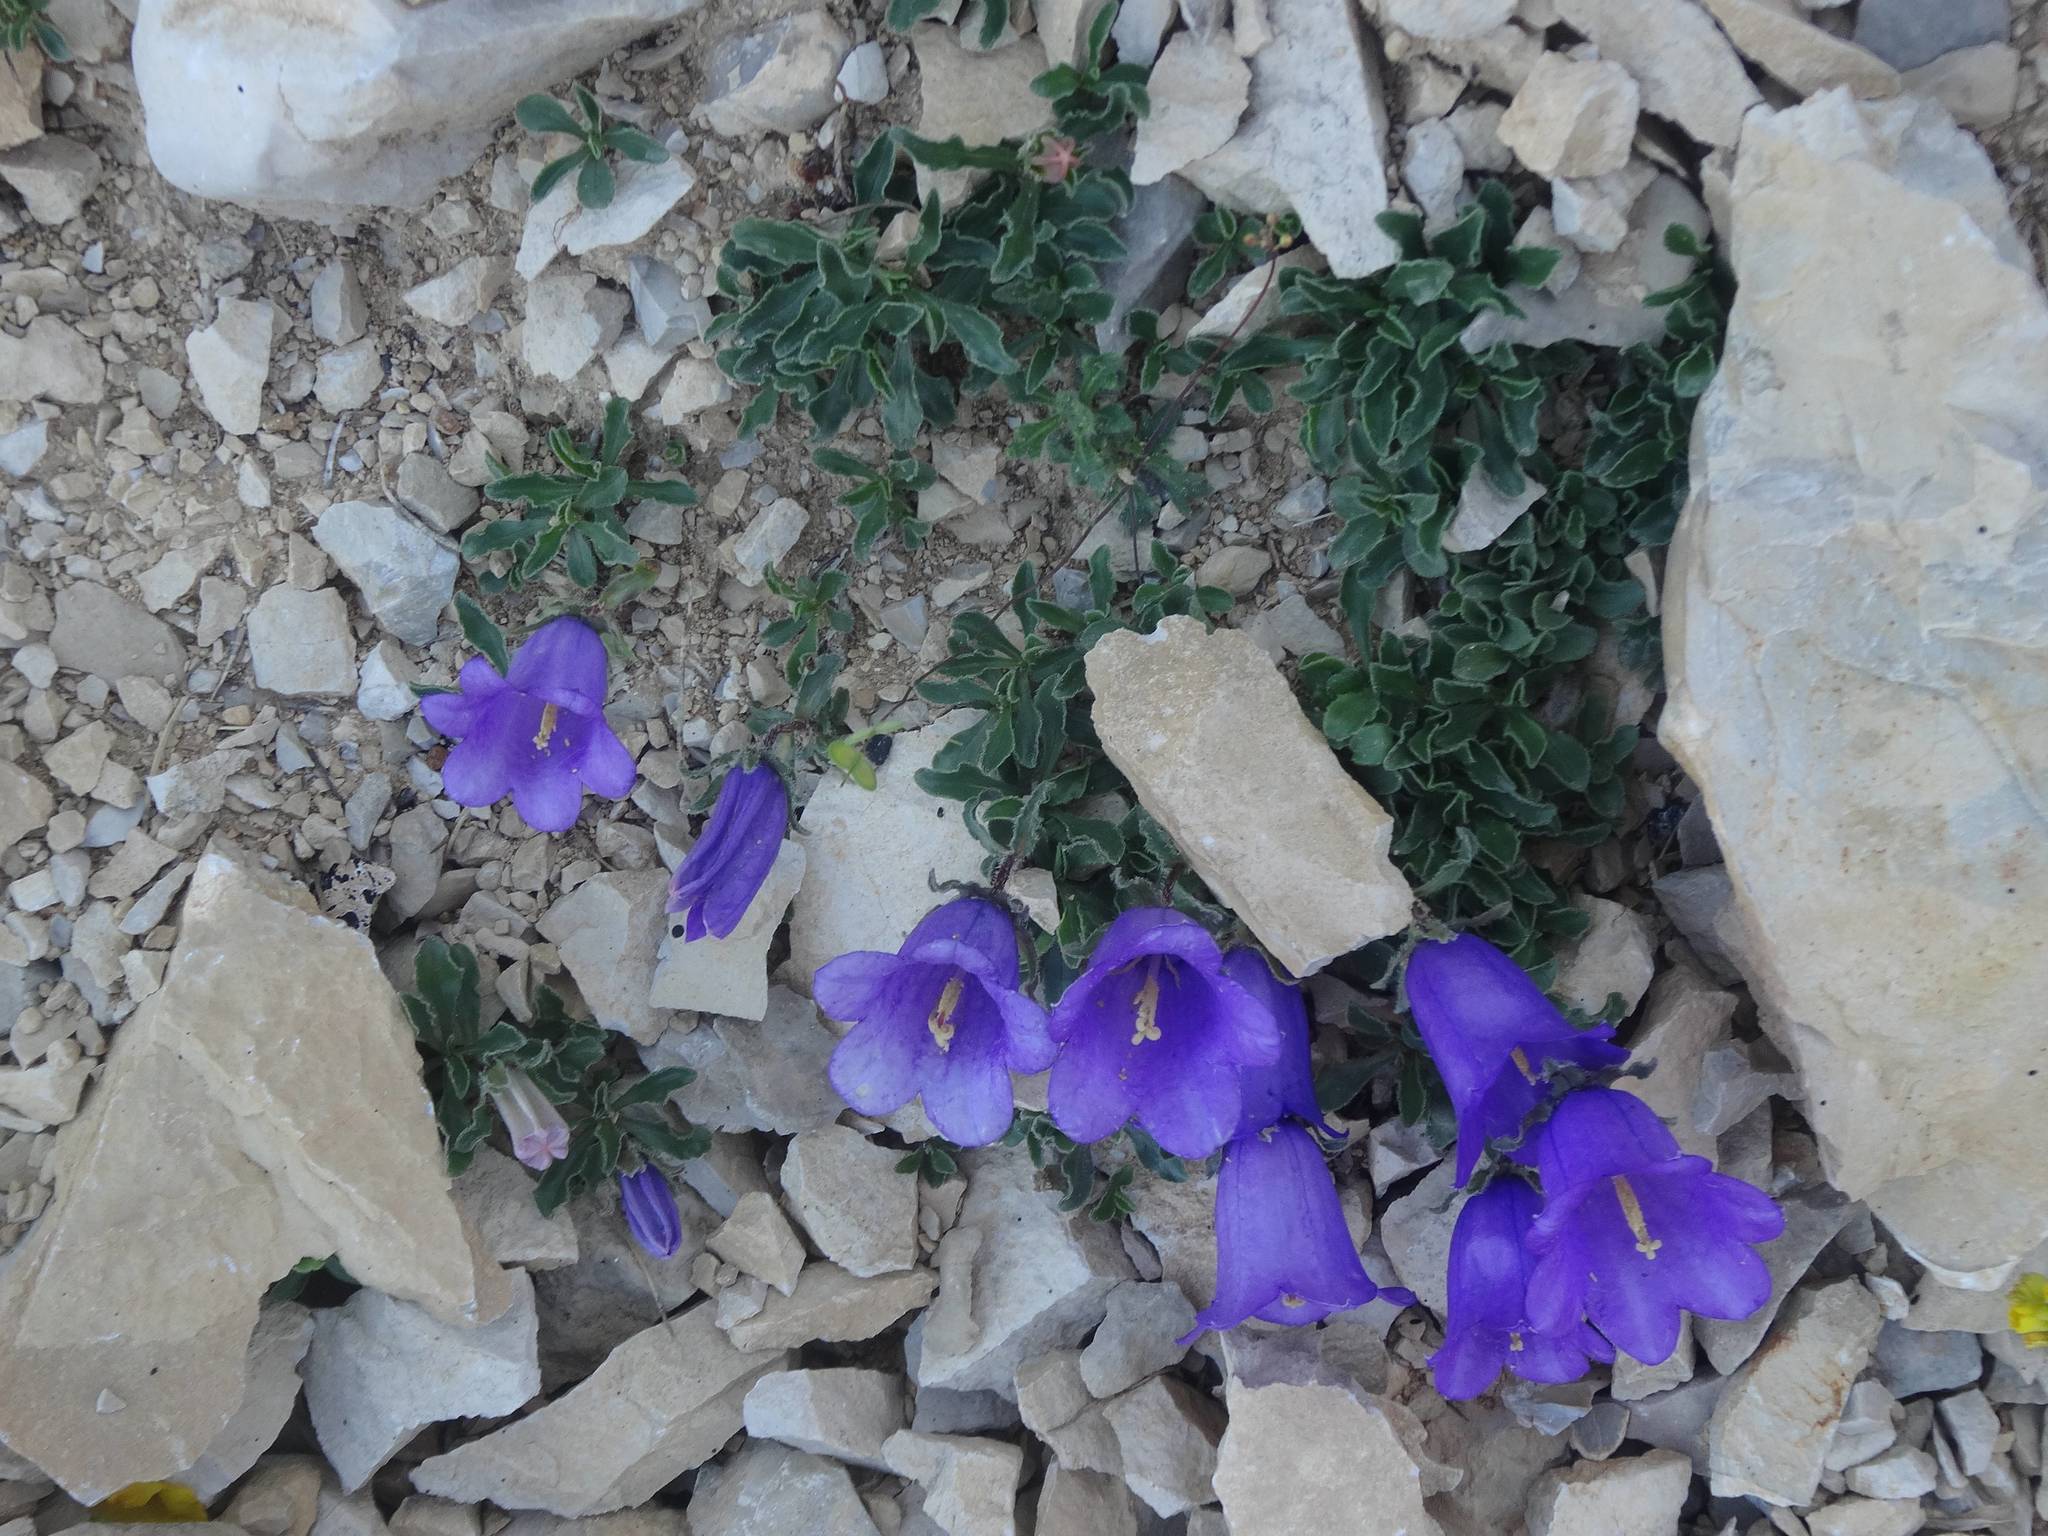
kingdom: Plantae
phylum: Tracheophyta
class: Magnoliopsida
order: Asterales
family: Campanulaceae
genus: Campanula
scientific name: Campanula alpestris
